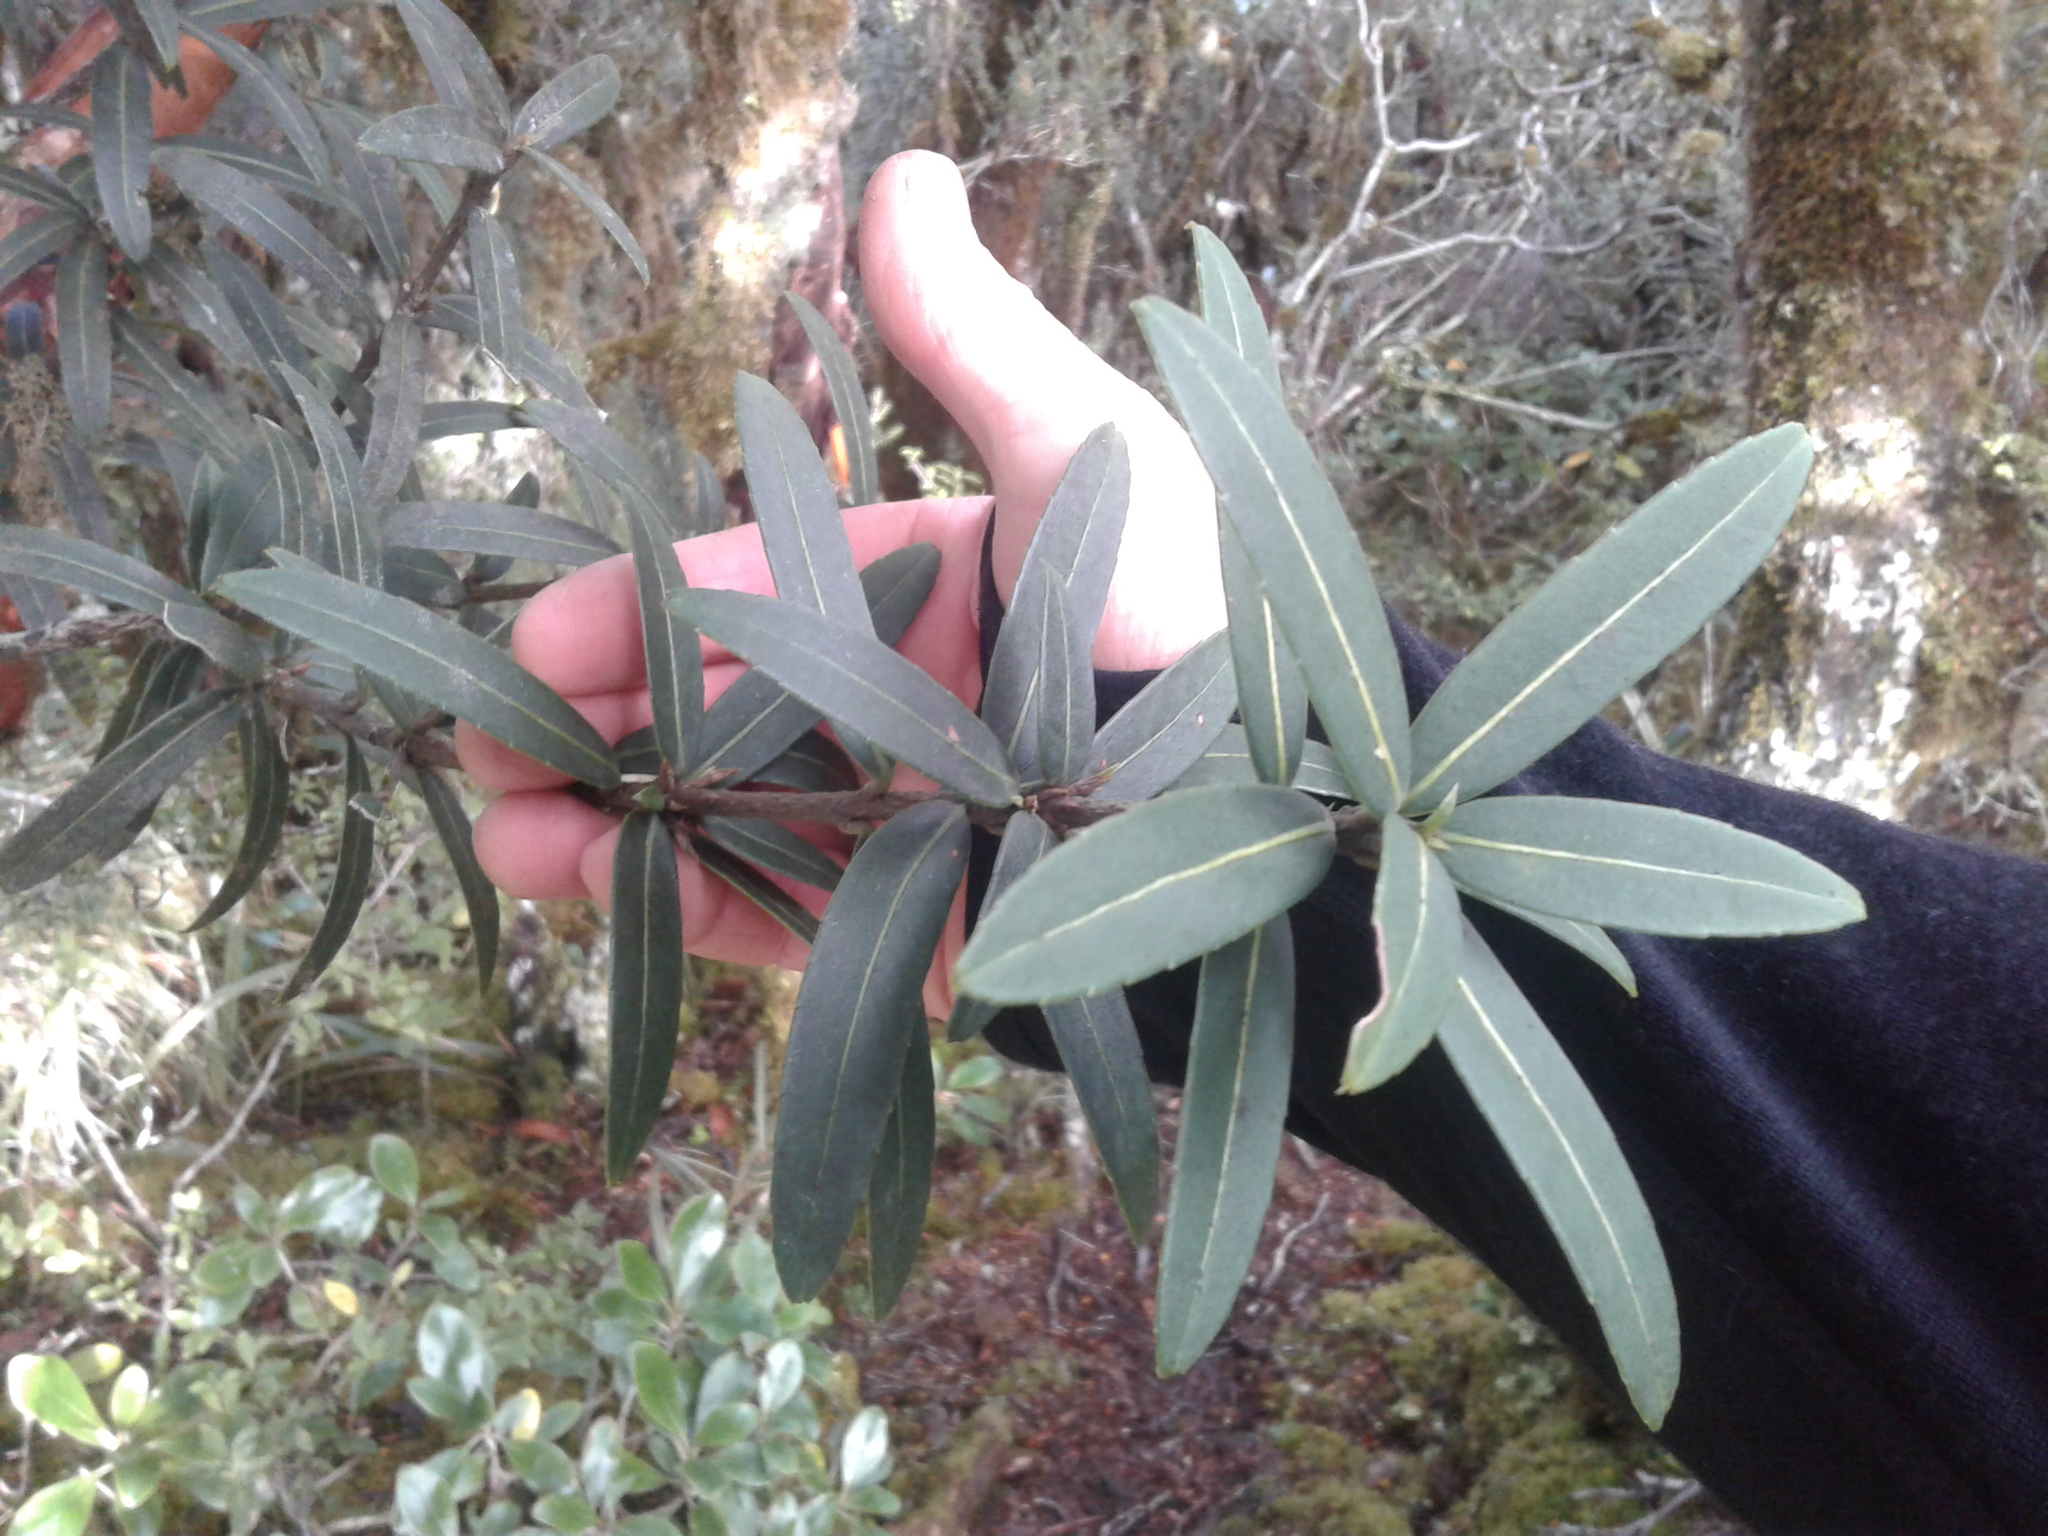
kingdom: Plantae
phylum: Tracheophyta
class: Magnoliopsida
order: Apiales
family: Araliaceae
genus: Pseudopanax
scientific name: Pseudopanax linearis
